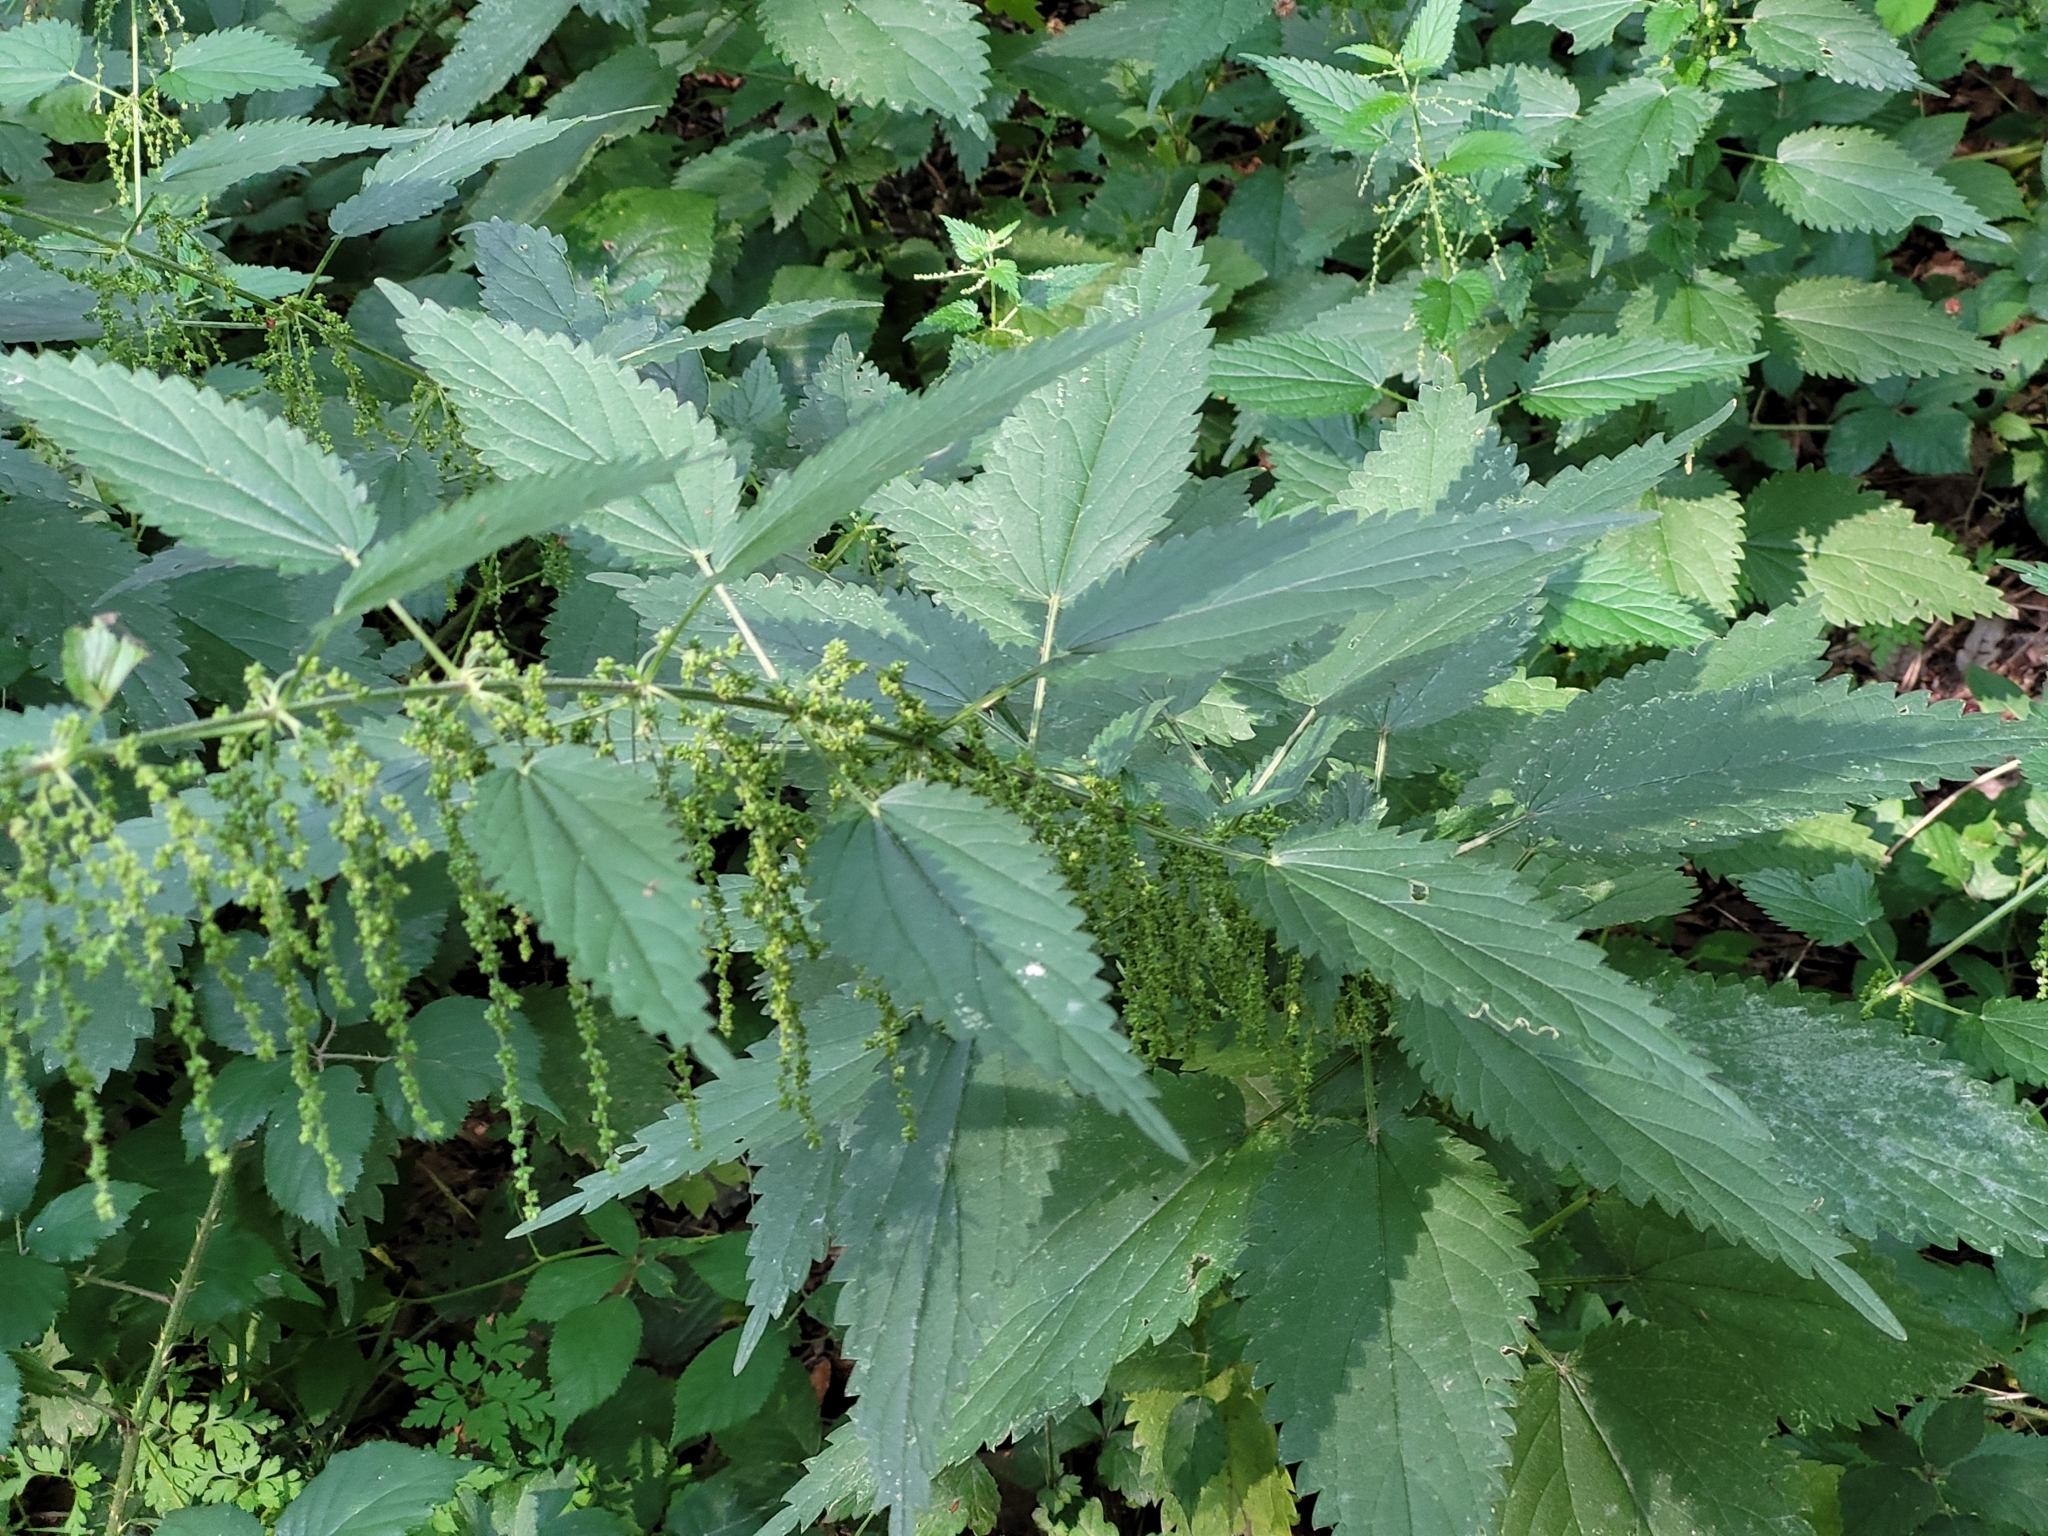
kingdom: Plantae
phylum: Tracheophyta
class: Magnoliopsida
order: Rosales
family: Urticaceae
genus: Urtica
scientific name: Urtica dioica
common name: Common nettle
